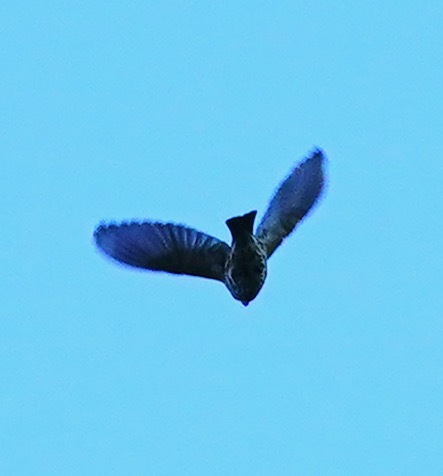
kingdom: Animalia
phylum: Chordata
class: Aves
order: Passeriformes
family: Fringillidae
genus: Haemorhous
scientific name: Haemorhous mexicanus
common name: House finch
